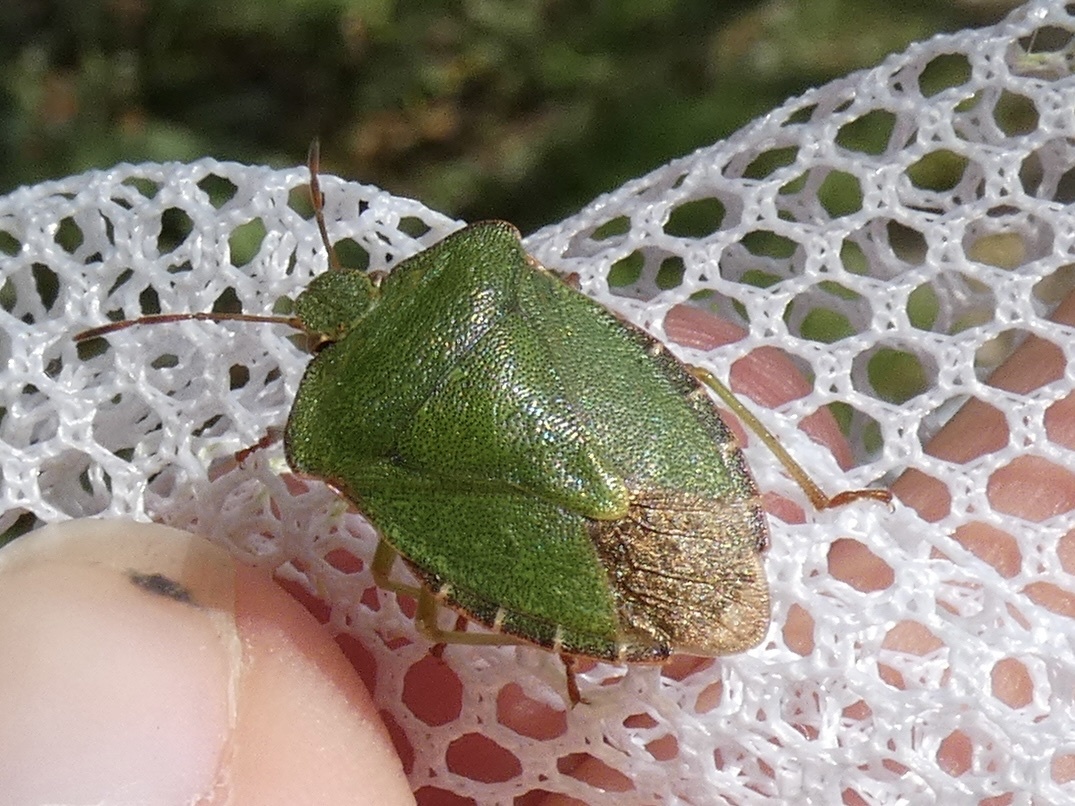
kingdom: Animalia
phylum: Arthropoda
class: Insecta
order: Hemiptera
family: Pentatomidae
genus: Palomena
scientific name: Palomena prasina
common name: Green shieldbug
